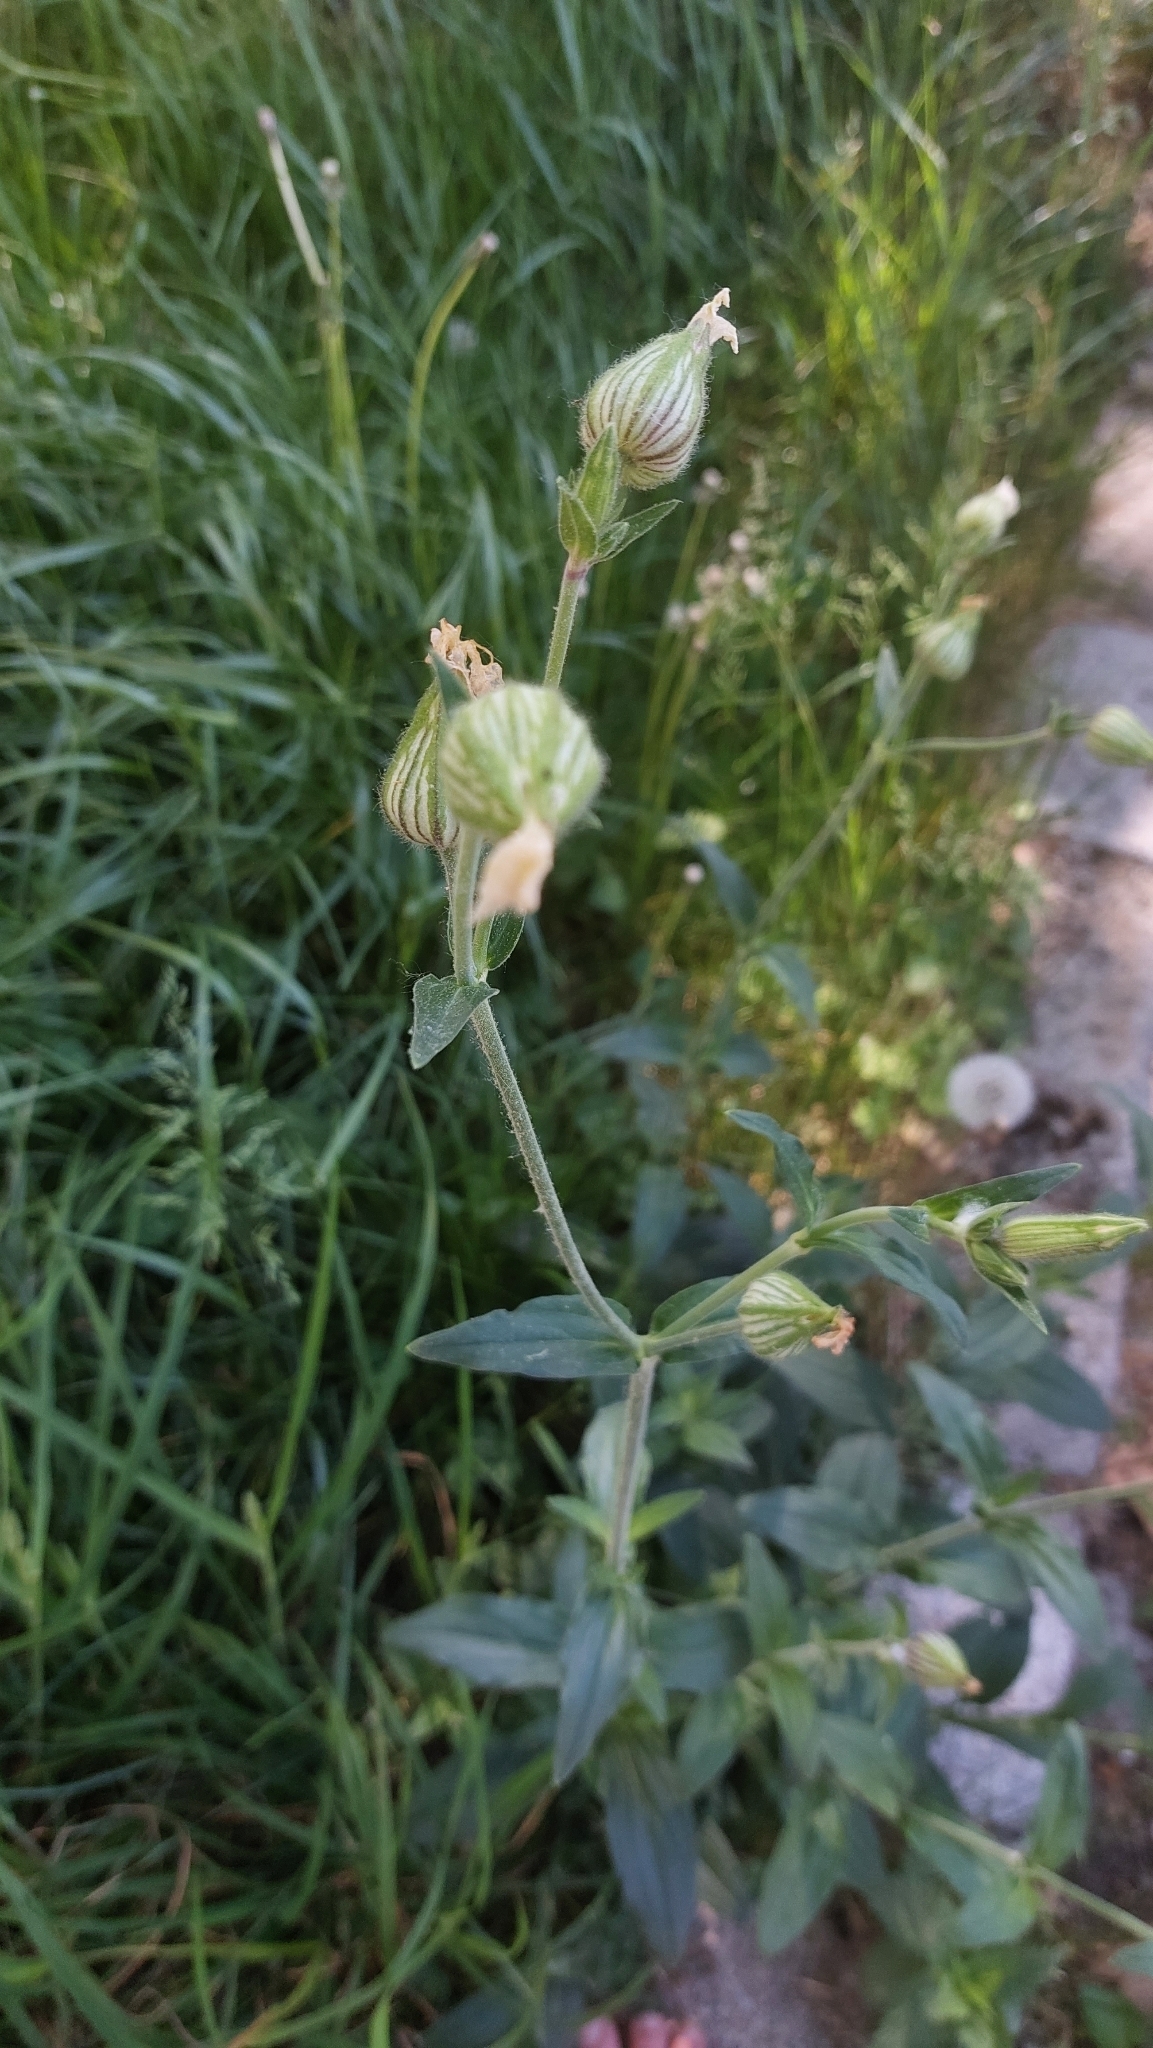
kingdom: Plantae
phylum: Tracheophyta
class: Magnoliopsida
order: Caryophyllales
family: Caryophyllaceae
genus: Silene
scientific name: Silene latifolia
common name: White campion
